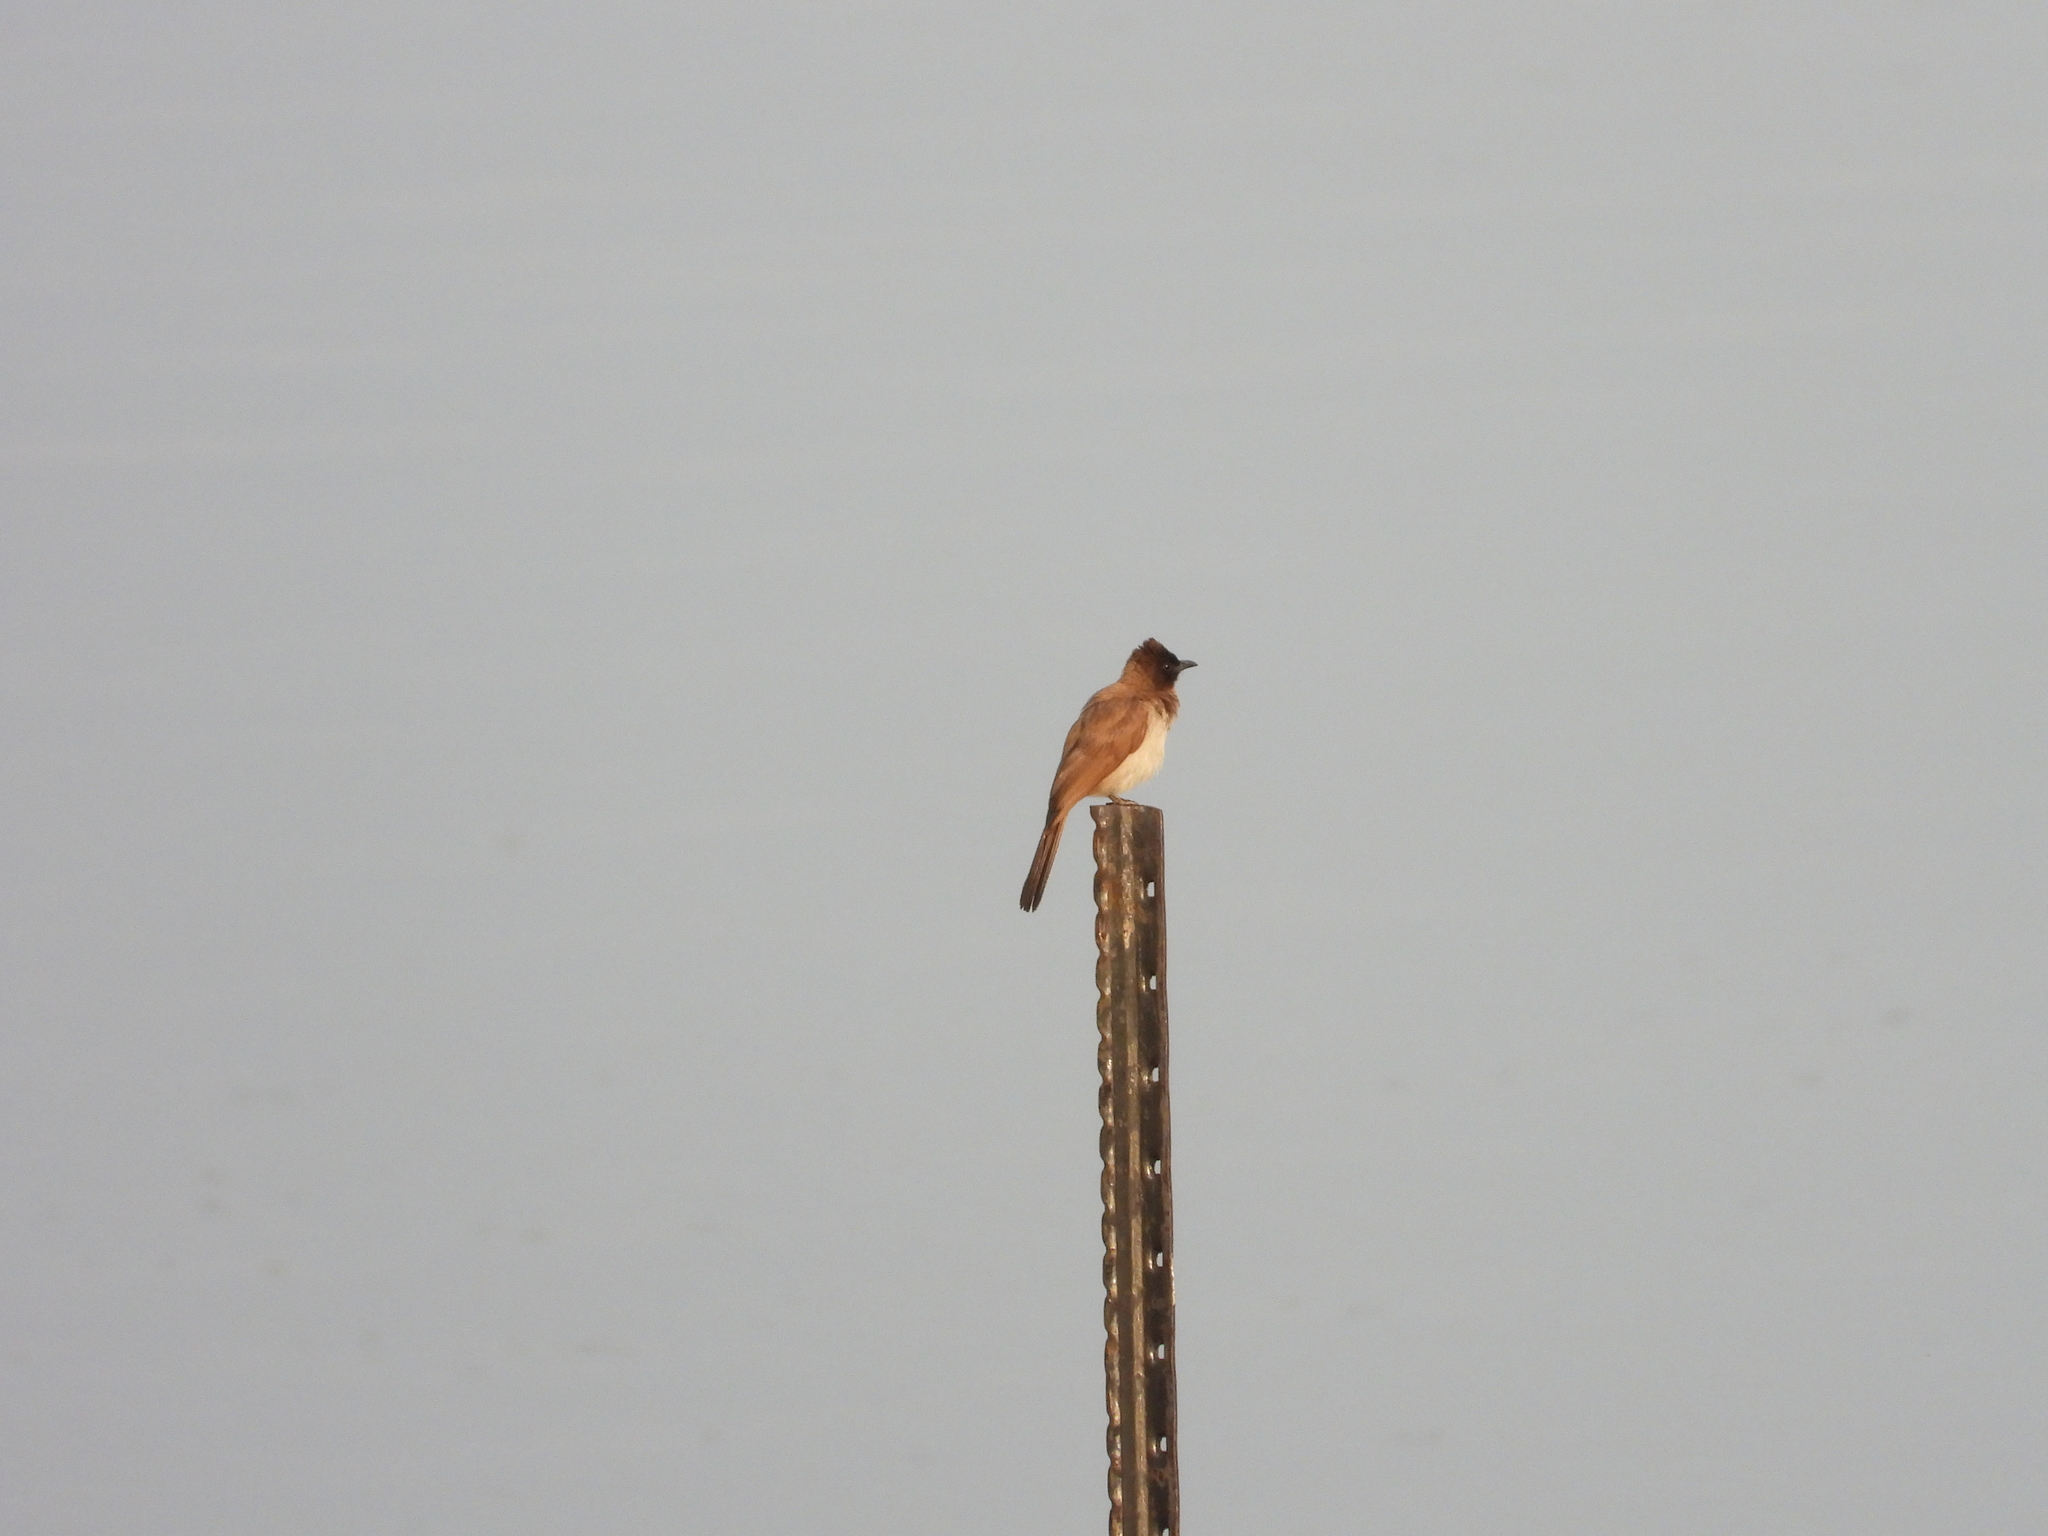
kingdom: Animalia
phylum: Chordata
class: Aves
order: Passeriformes
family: Pycnonotidae
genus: Pycnonotus
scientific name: Pycnonotus barbatus
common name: Common bulbul
